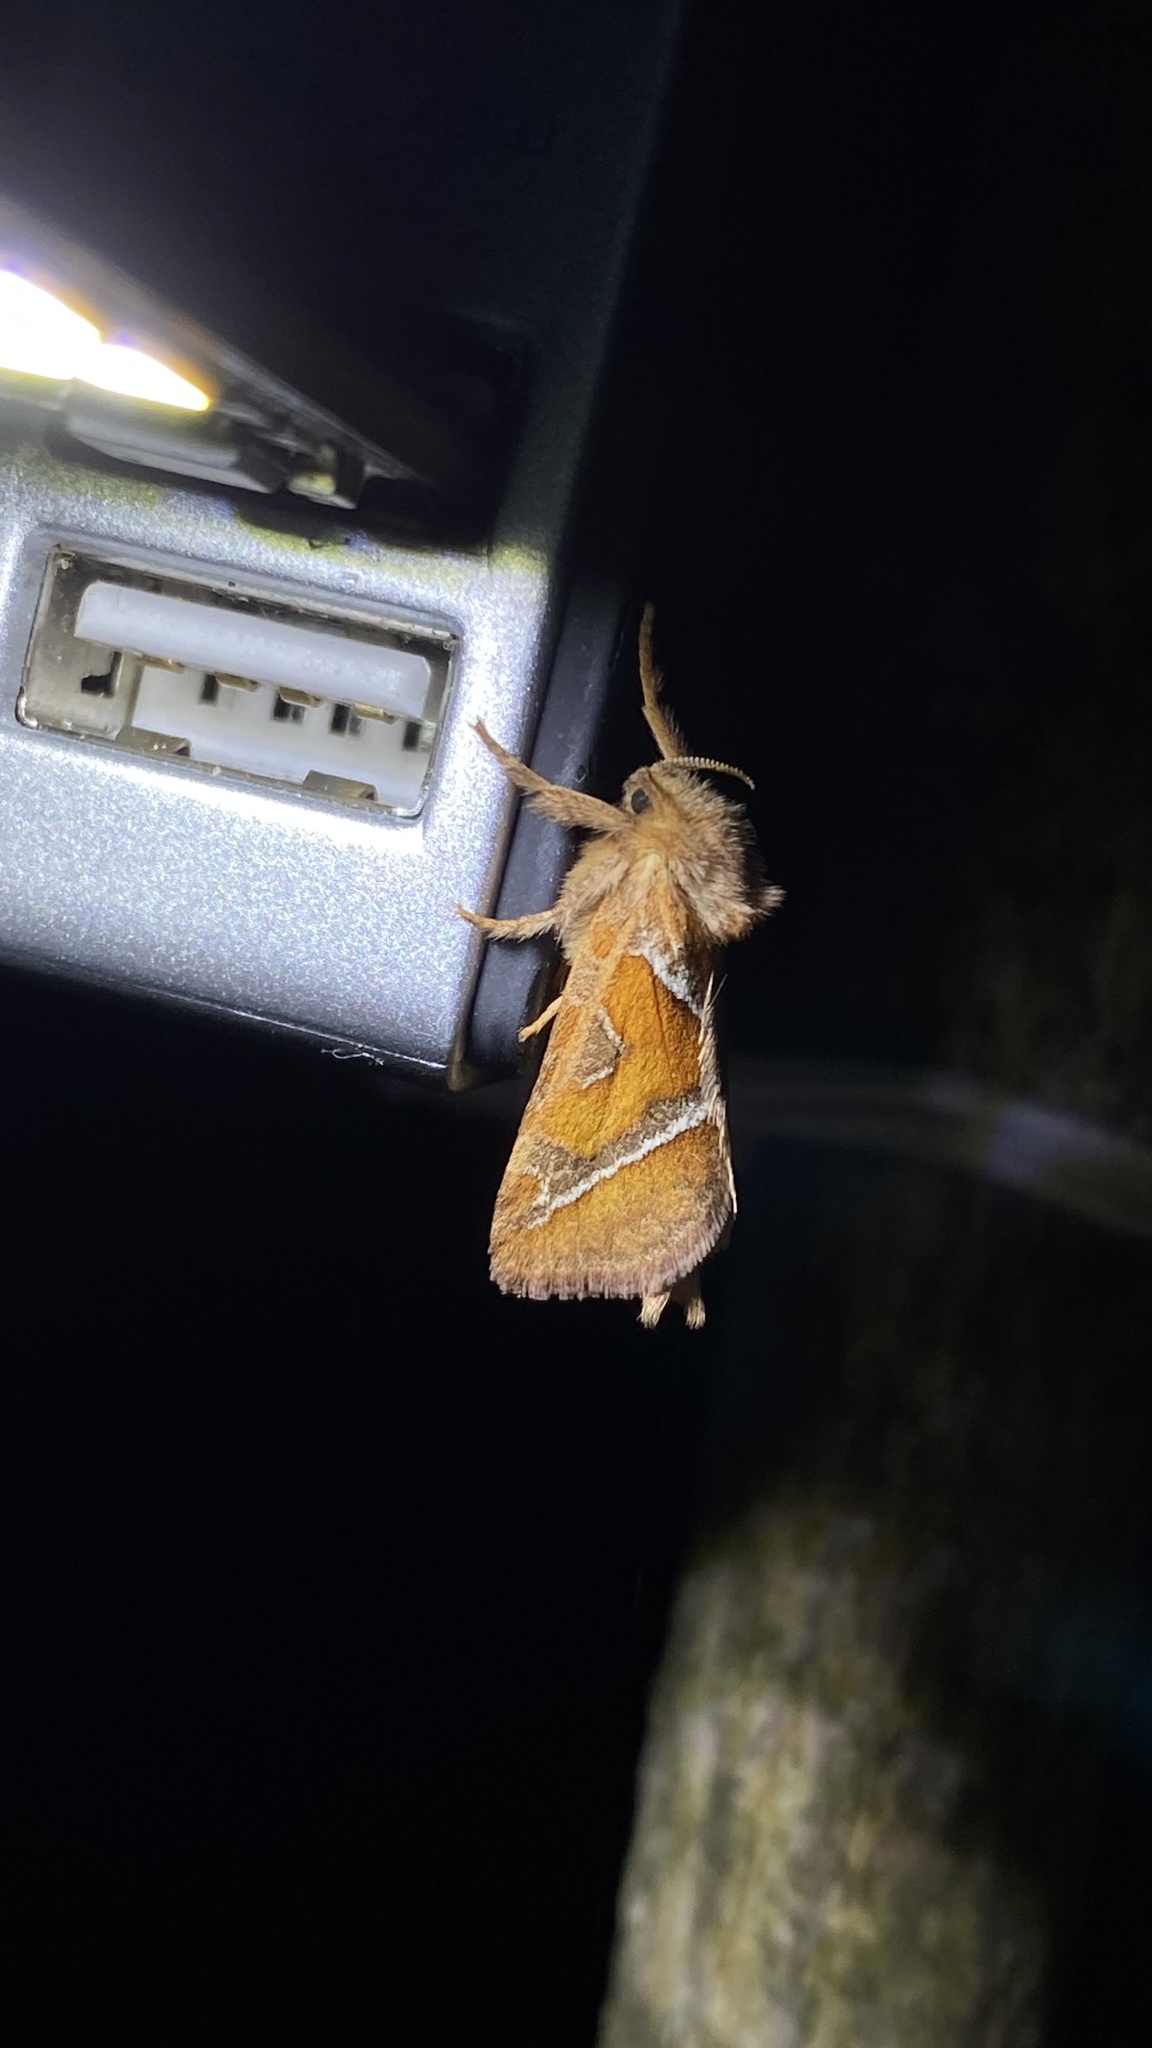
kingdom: Animalia
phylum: Arthropoda
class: Insecta
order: Lepidoptera
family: Hepialidae
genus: Triodia
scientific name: Triodia sylvina
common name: Orange swift
